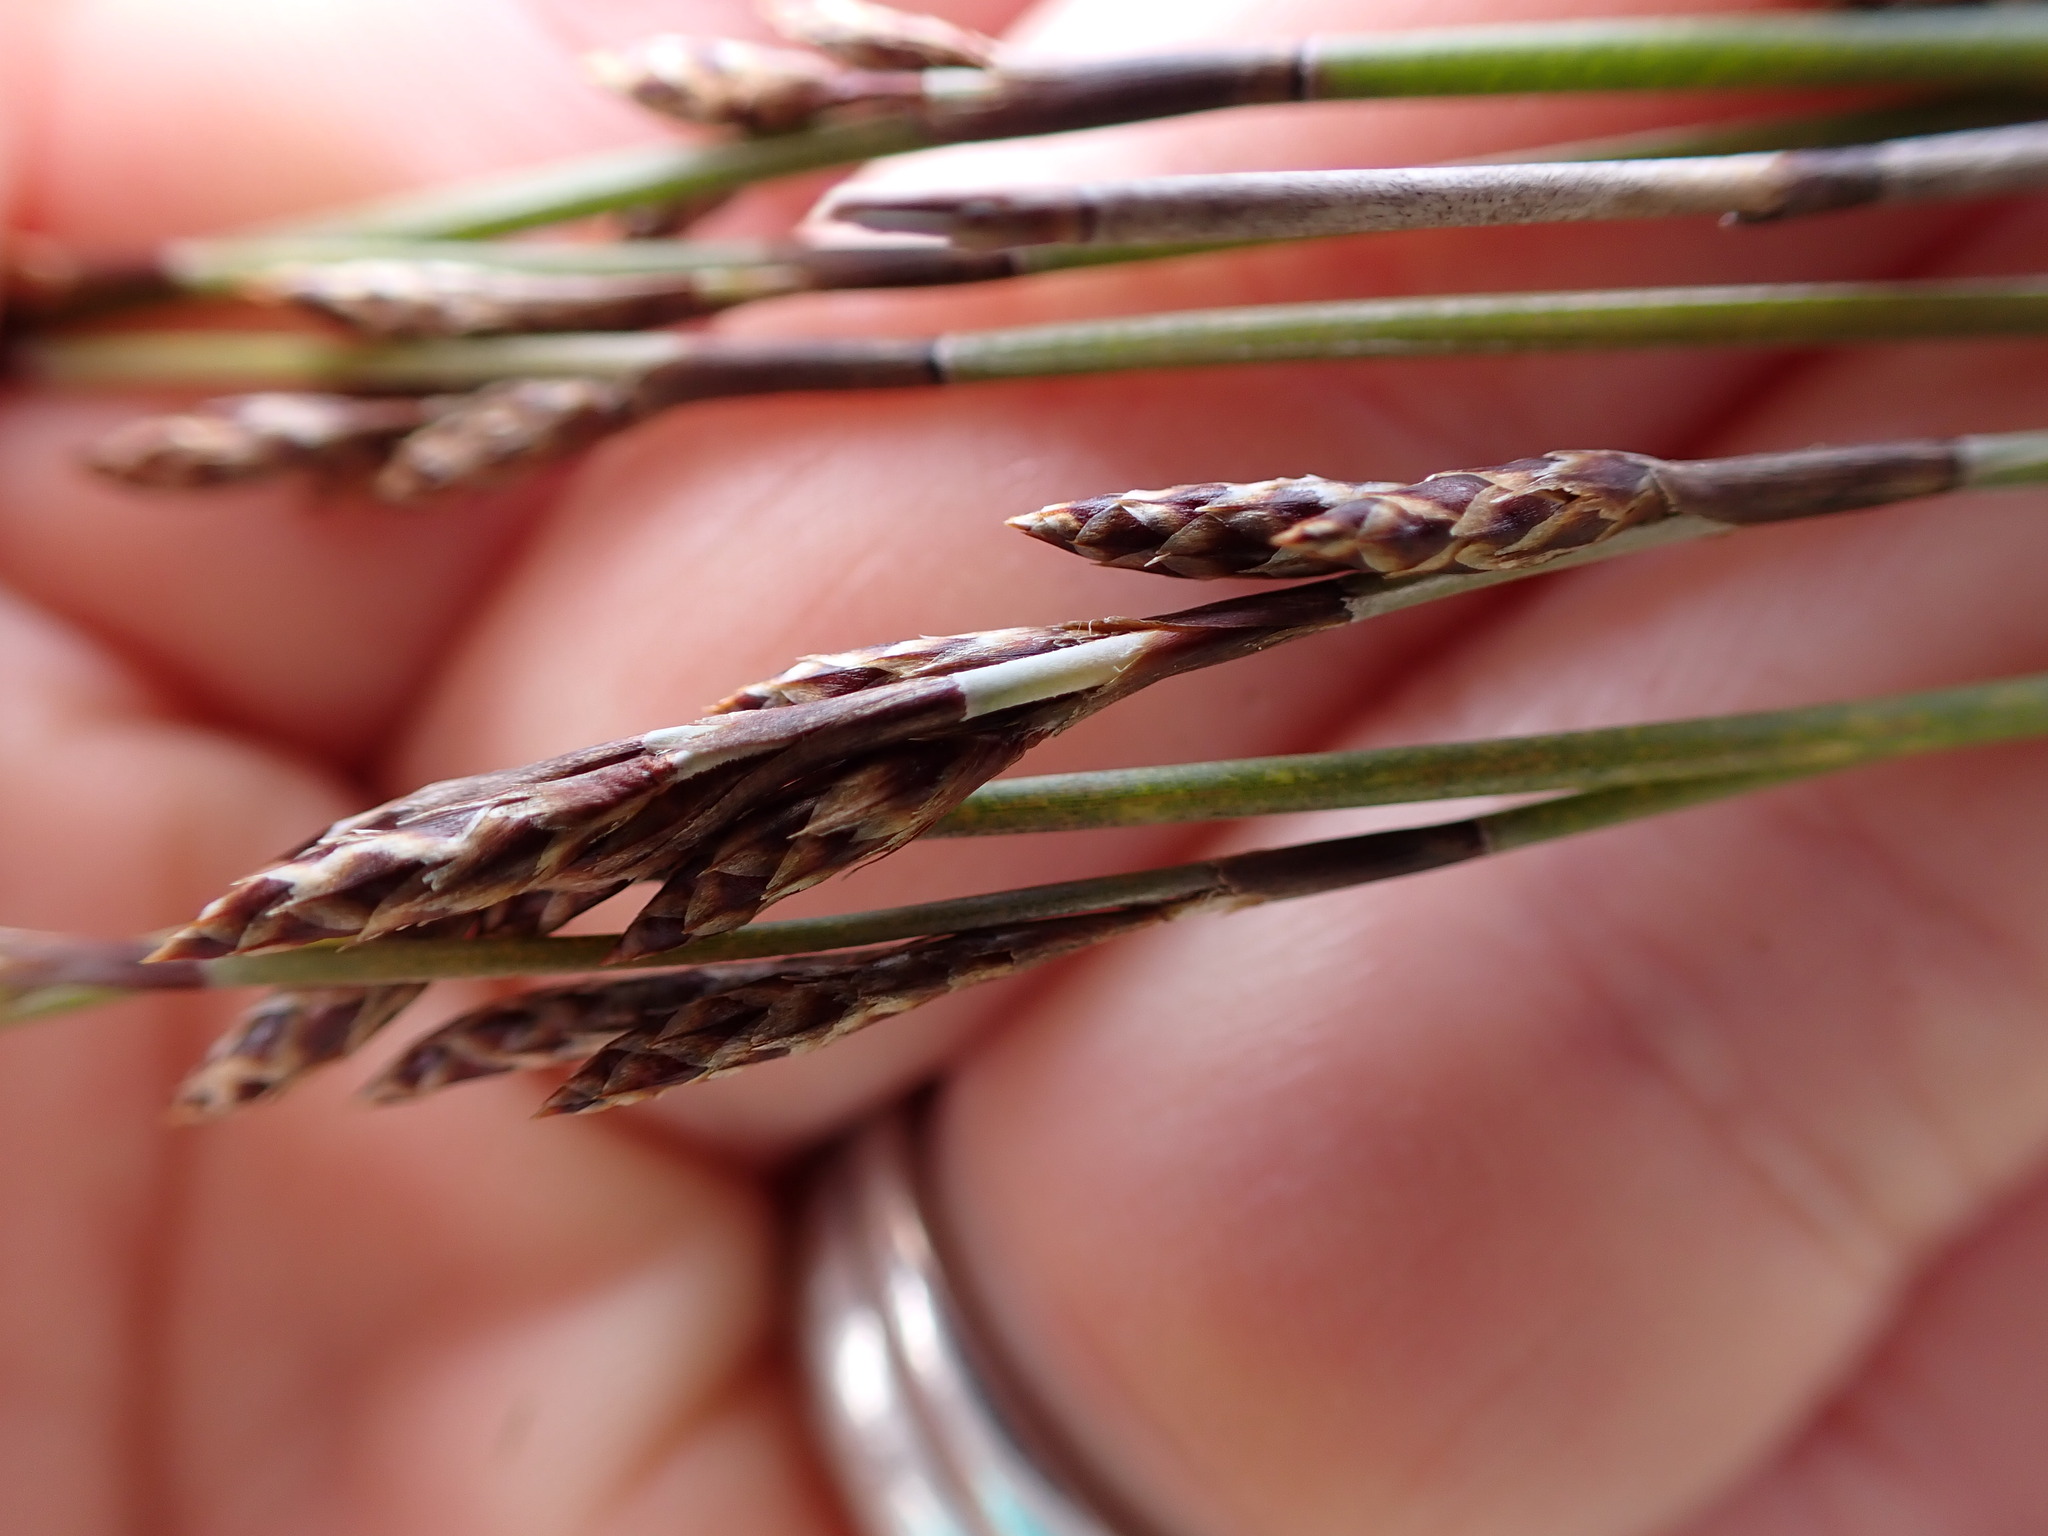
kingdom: Plantae
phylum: Tracheophyta
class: Liliopsida
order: Poales
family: Restionaceae
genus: Apodasmia
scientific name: Apodasmia similis
